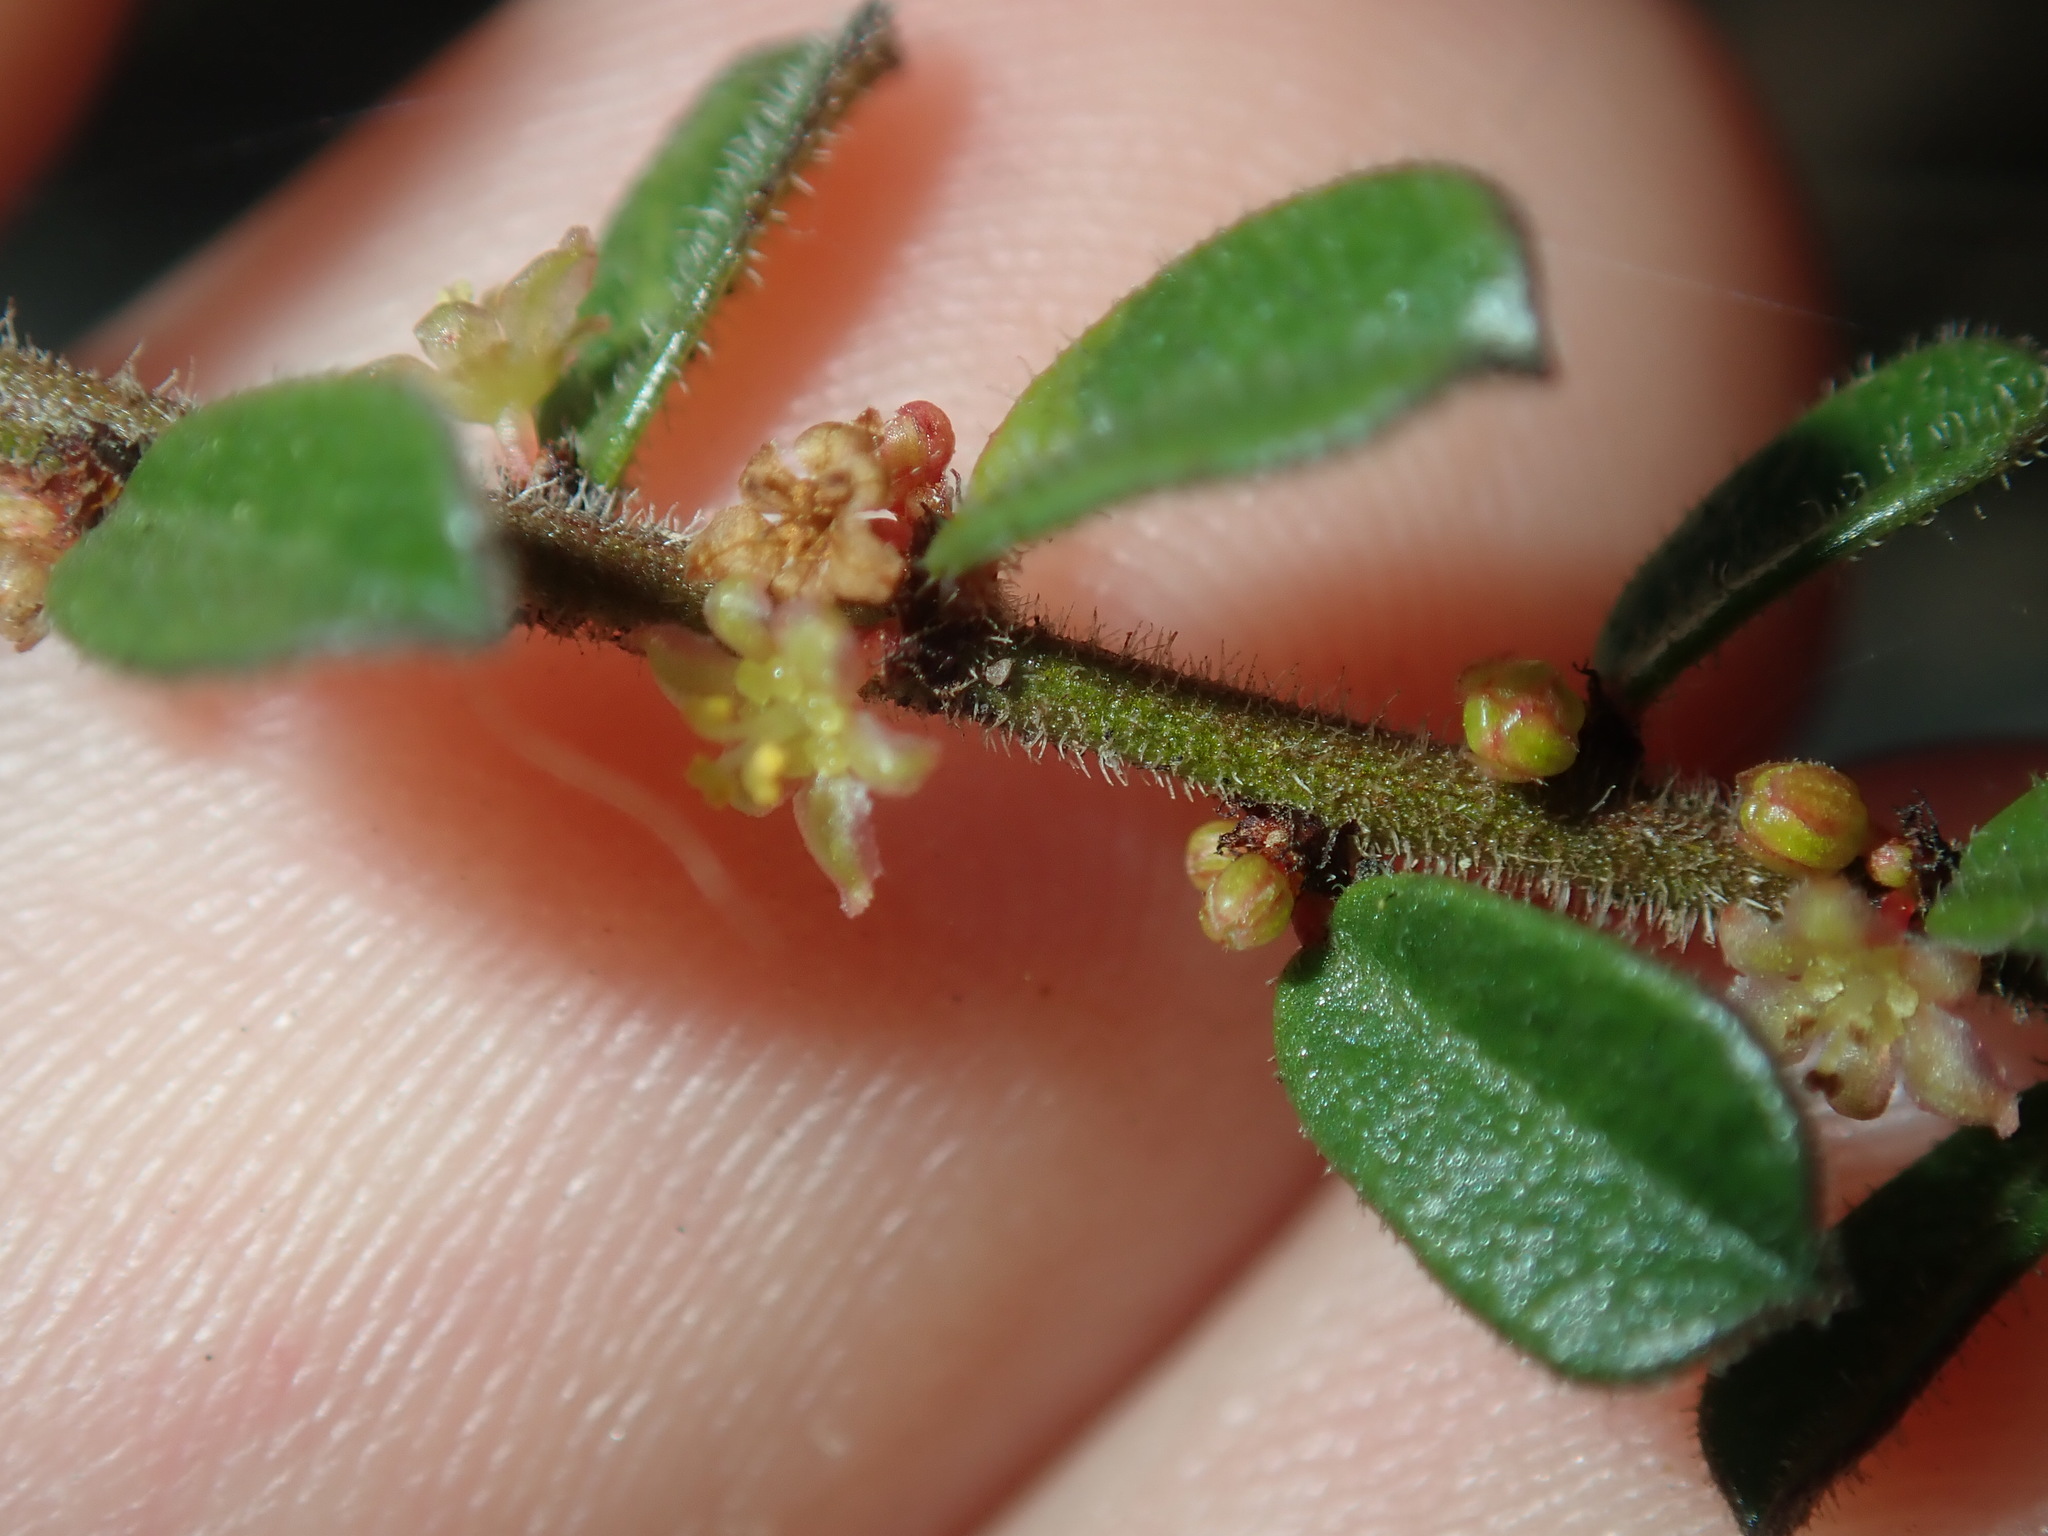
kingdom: Plantae
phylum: Tracheophyta
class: Magnoliopsida
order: Malpighiales
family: Phyllanthaceae
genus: Phyllanthus
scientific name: Phyllanthus hirtellus
